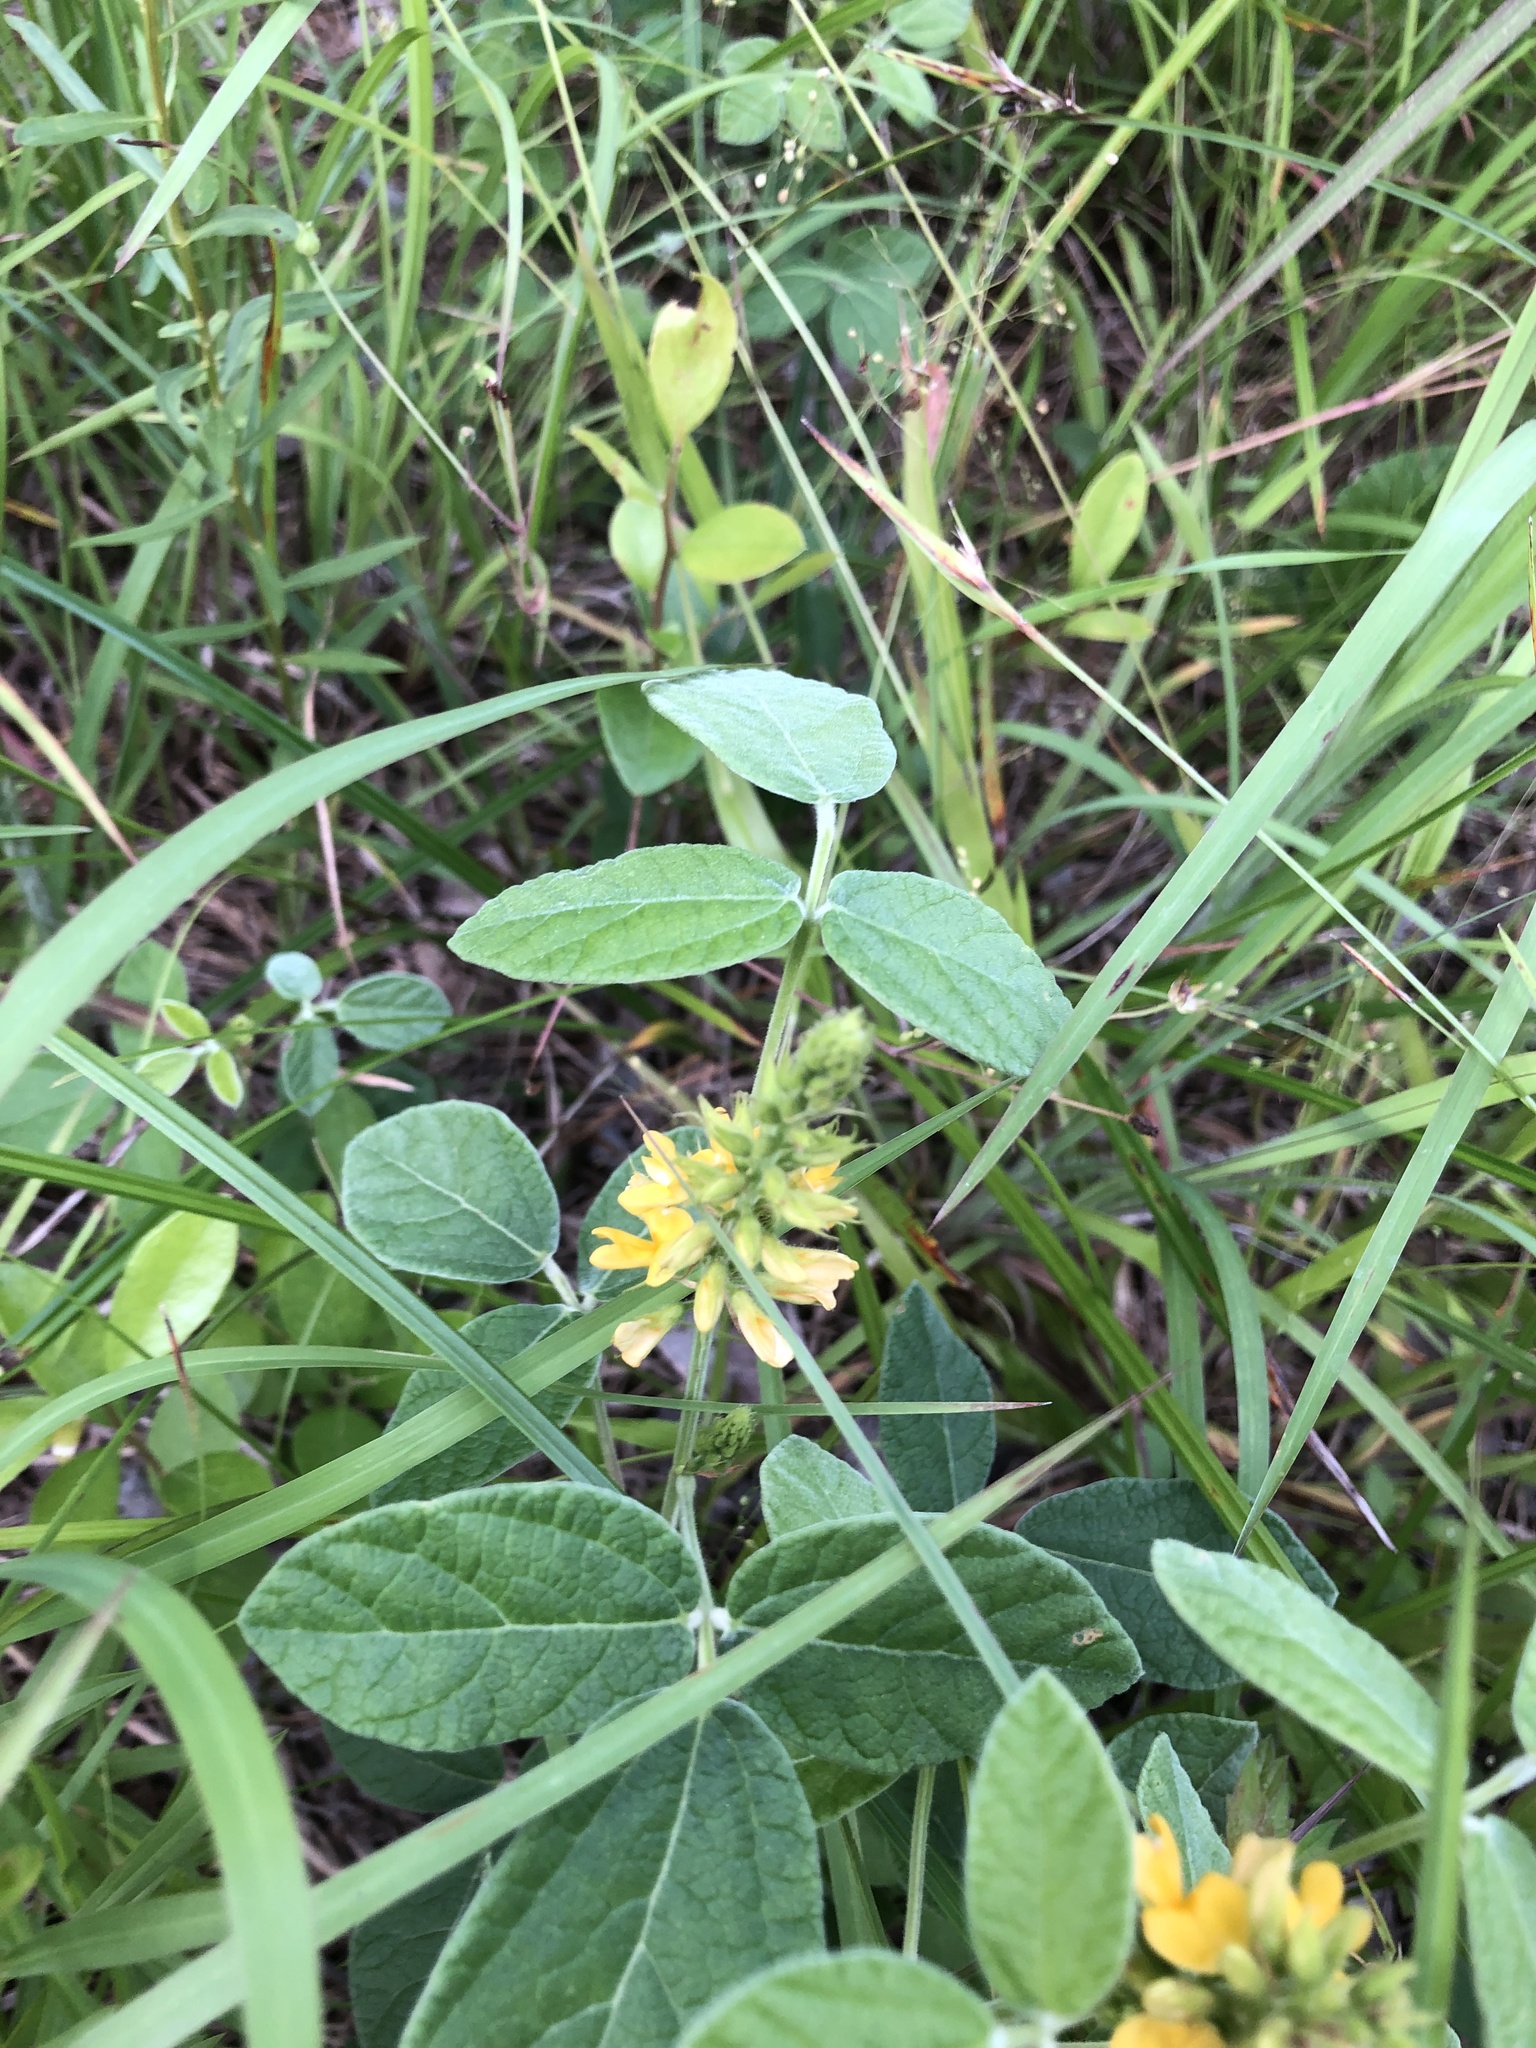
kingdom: Plantae
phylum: Tracheophyta
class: Magnoliopsida
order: Fabales
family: Fabaceae
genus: Rhynchosia
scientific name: Rhynchosia tomentosa
